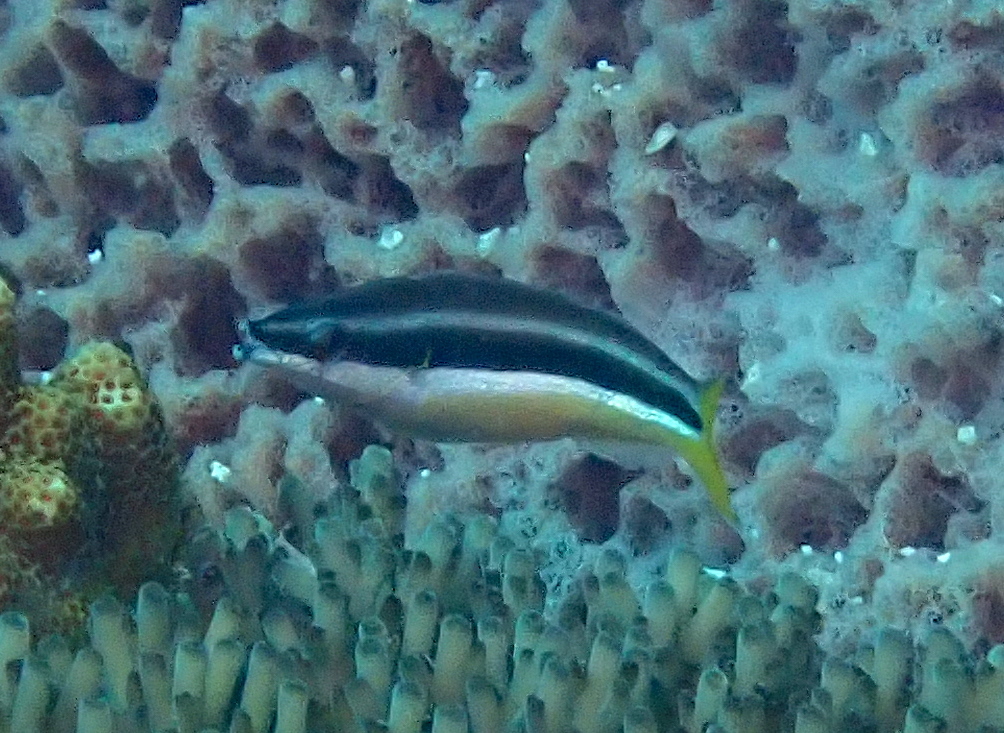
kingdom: Animalia
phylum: Chordata
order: Perciformes
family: Labridae
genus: Diproctacanthus
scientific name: Diproctacanthus xanthurus
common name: Wandering cleaner wrasse
